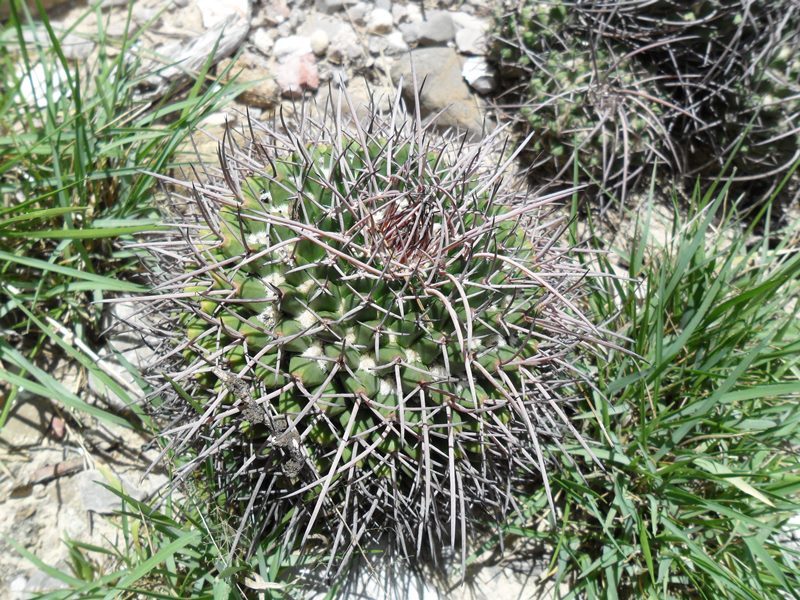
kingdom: Plantae
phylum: Tracheophyta
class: Magnoliopsida
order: Caryophyllales
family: Cactaceae
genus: Mammillaria
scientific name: Mammillaria carnea
